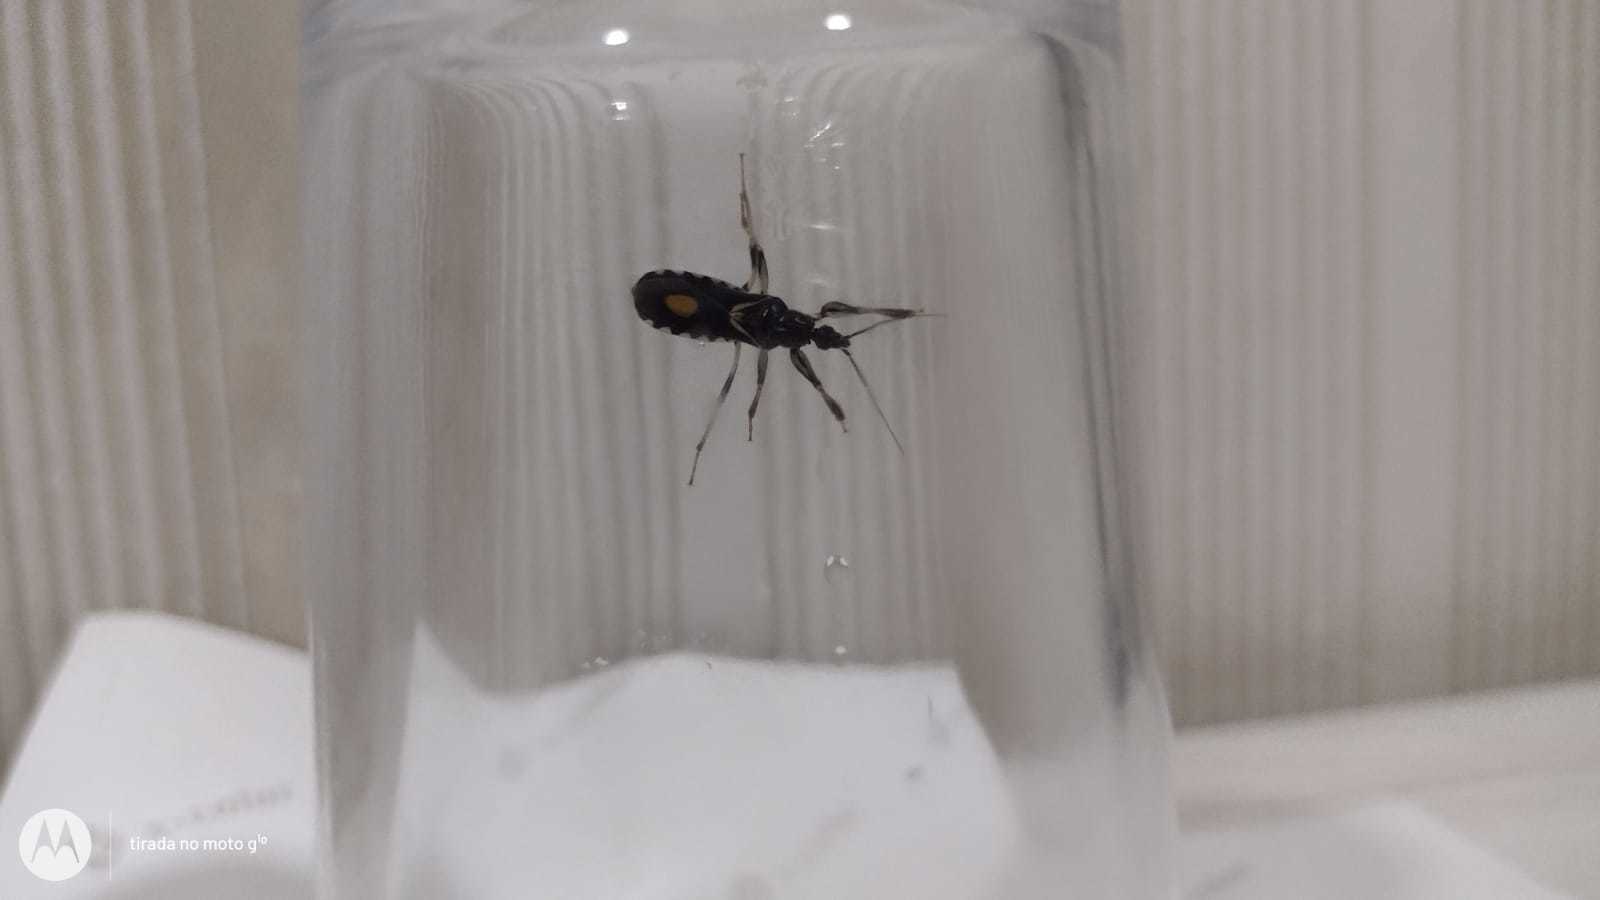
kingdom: Animalia
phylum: Arthropoda
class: Insecta
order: Hemiptera
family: Reduviidae
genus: Rasahus
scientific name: Rasahus hamatus
